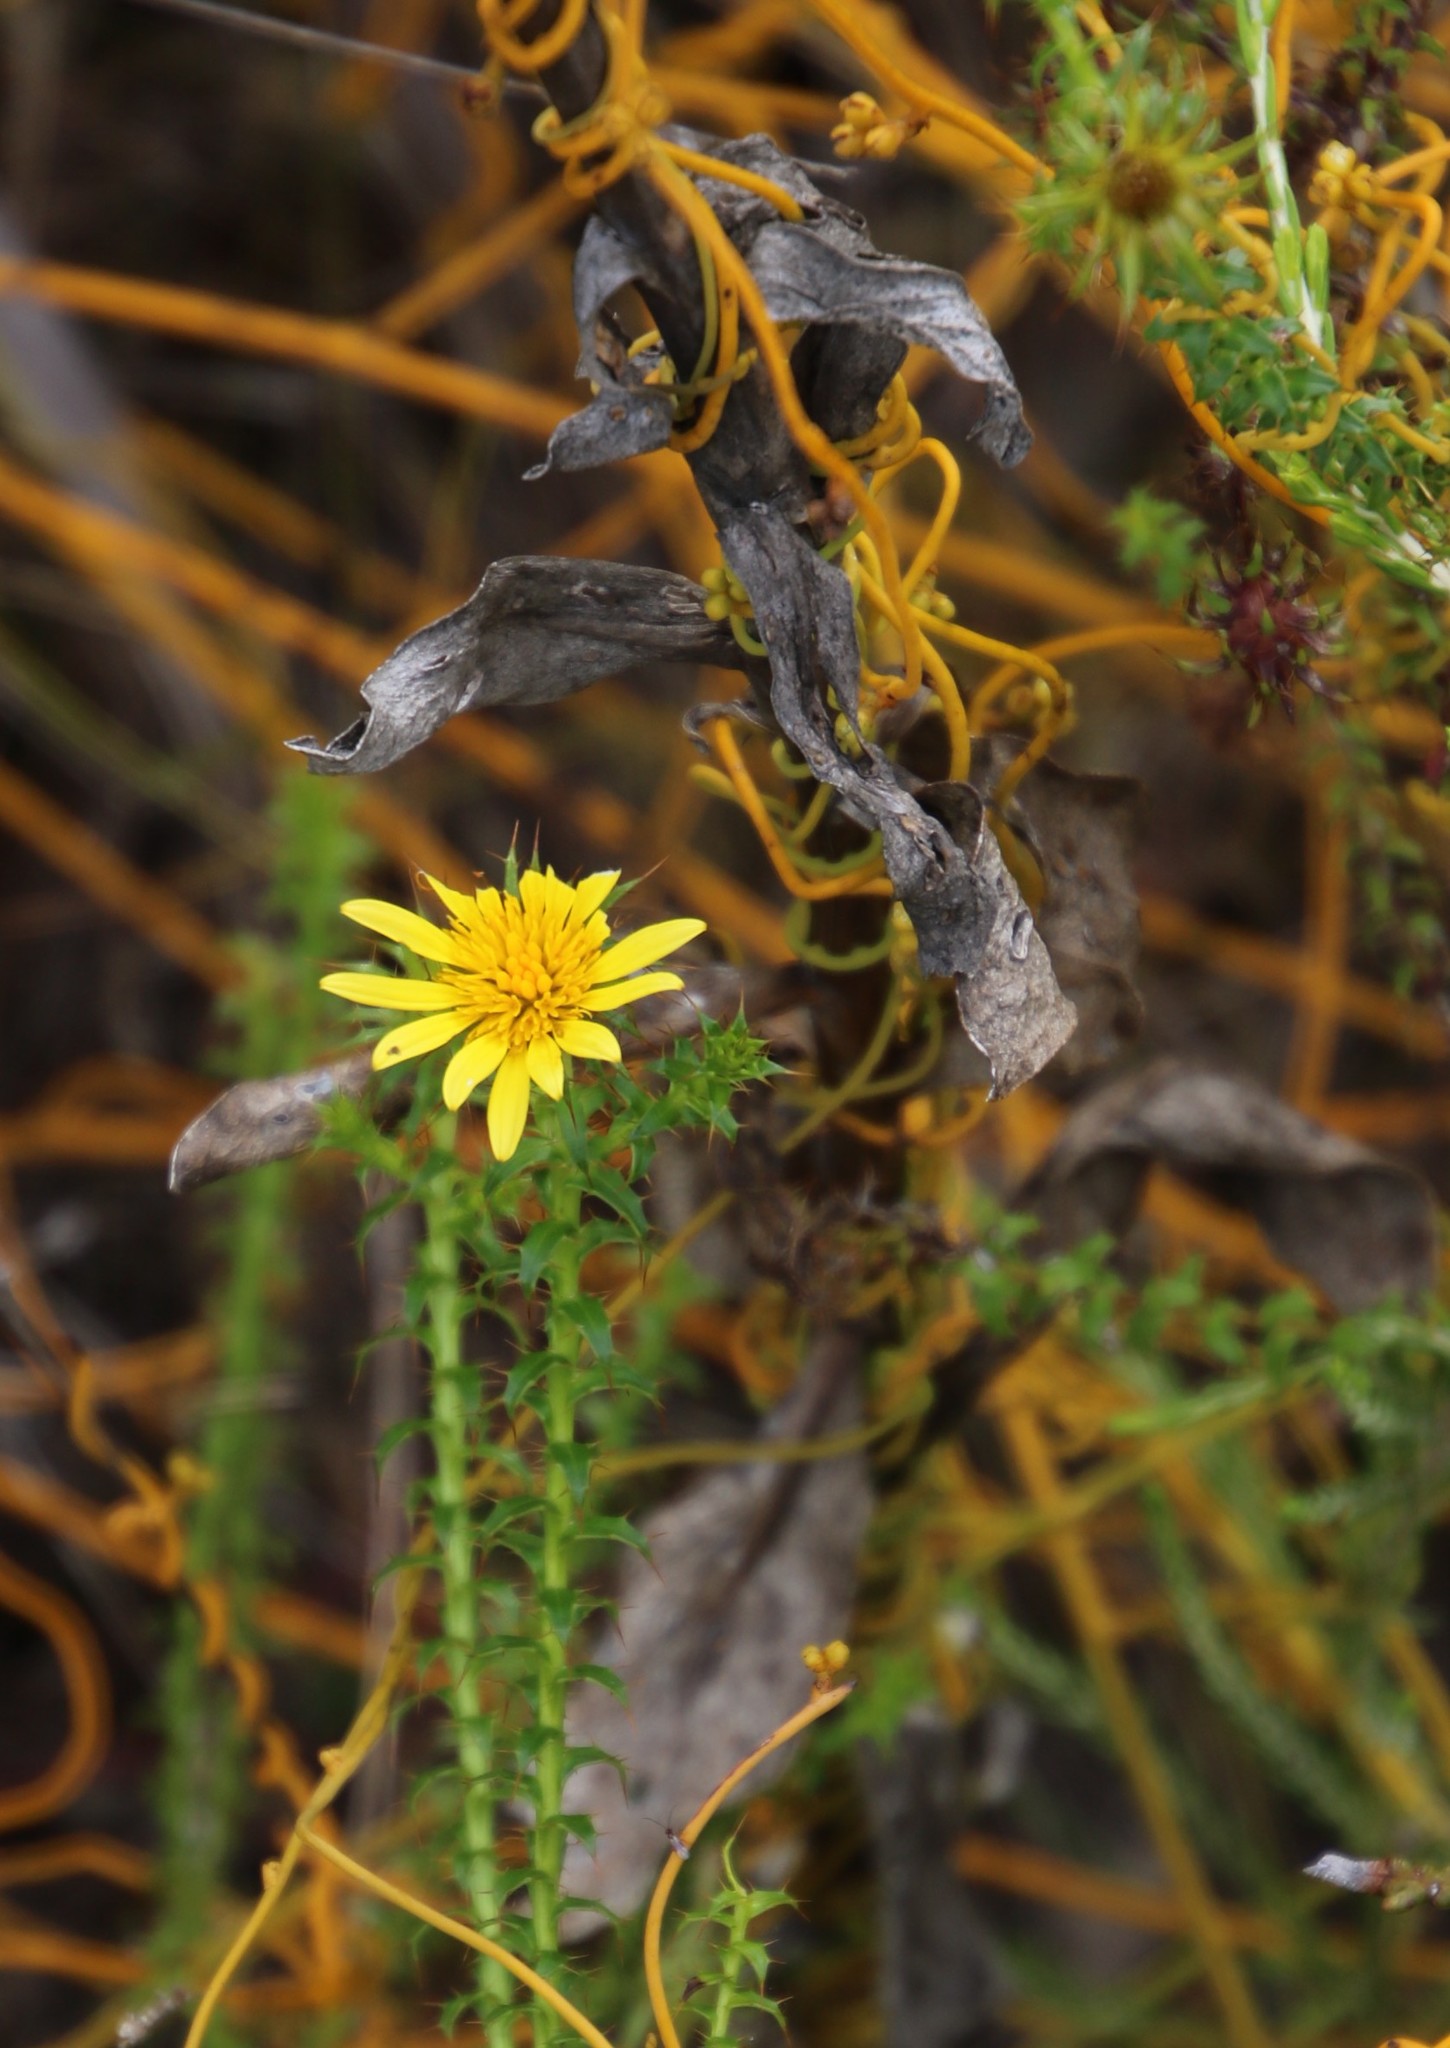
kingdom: Plantae
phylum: Tracheophyta
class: Magnoliopsida
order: Asterales
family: Asteraceae
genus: Cullumia
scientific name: Cullumia setosa
